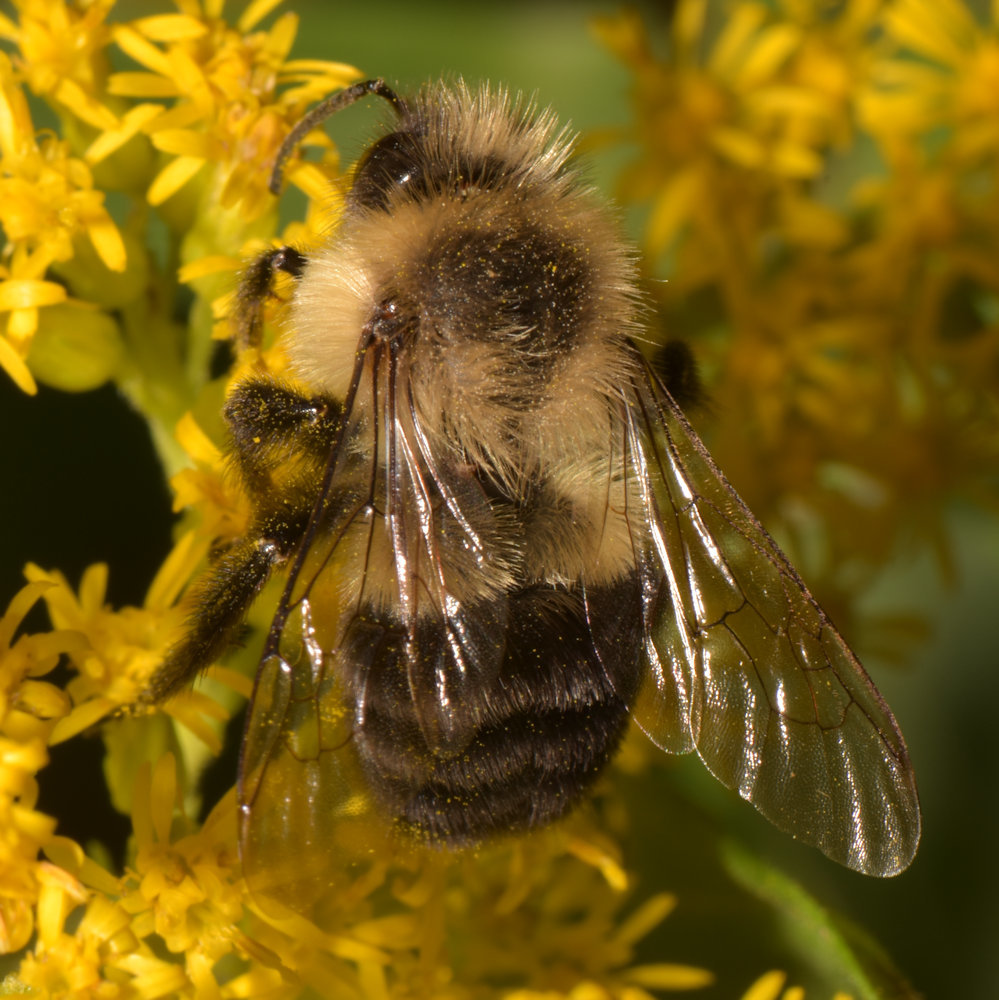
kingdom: Animalia
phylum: Arthropoda
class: Insecta
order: Hymenoptera
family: Apidae
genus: Bombus
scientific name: Bombus impatiens
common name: Common eastern bumble bee
